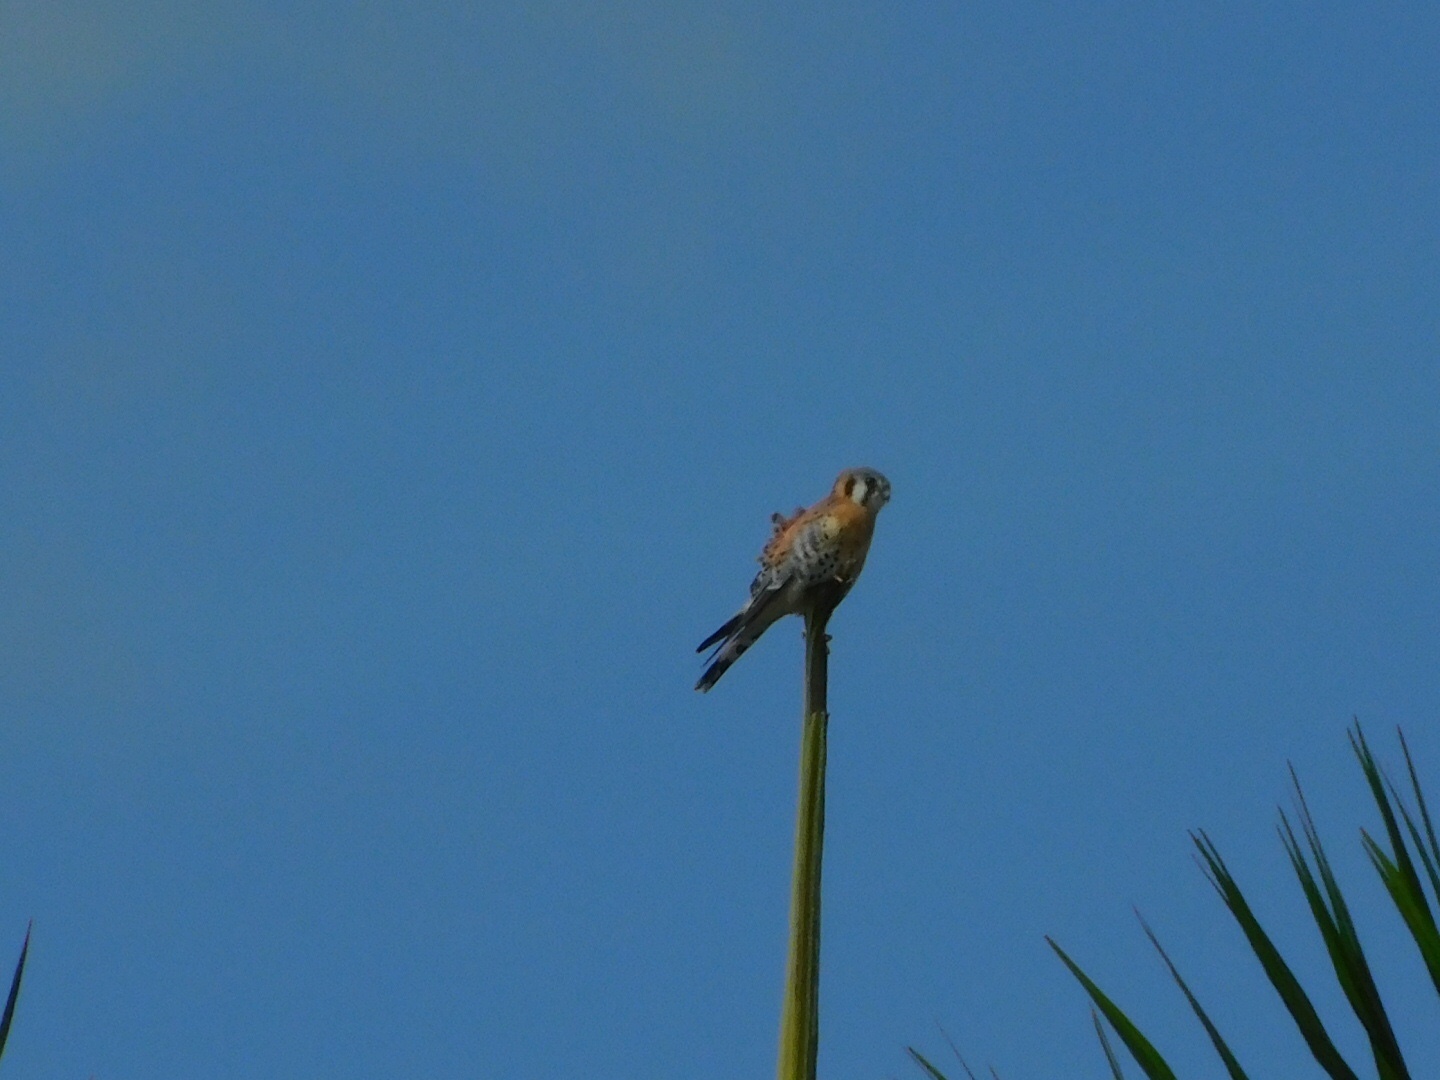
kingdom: Animalia
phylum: Chordata
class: Aves
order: Falconiformes
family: Falconidae
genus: Falco
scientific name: Falco sparverius
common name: American kestrel
